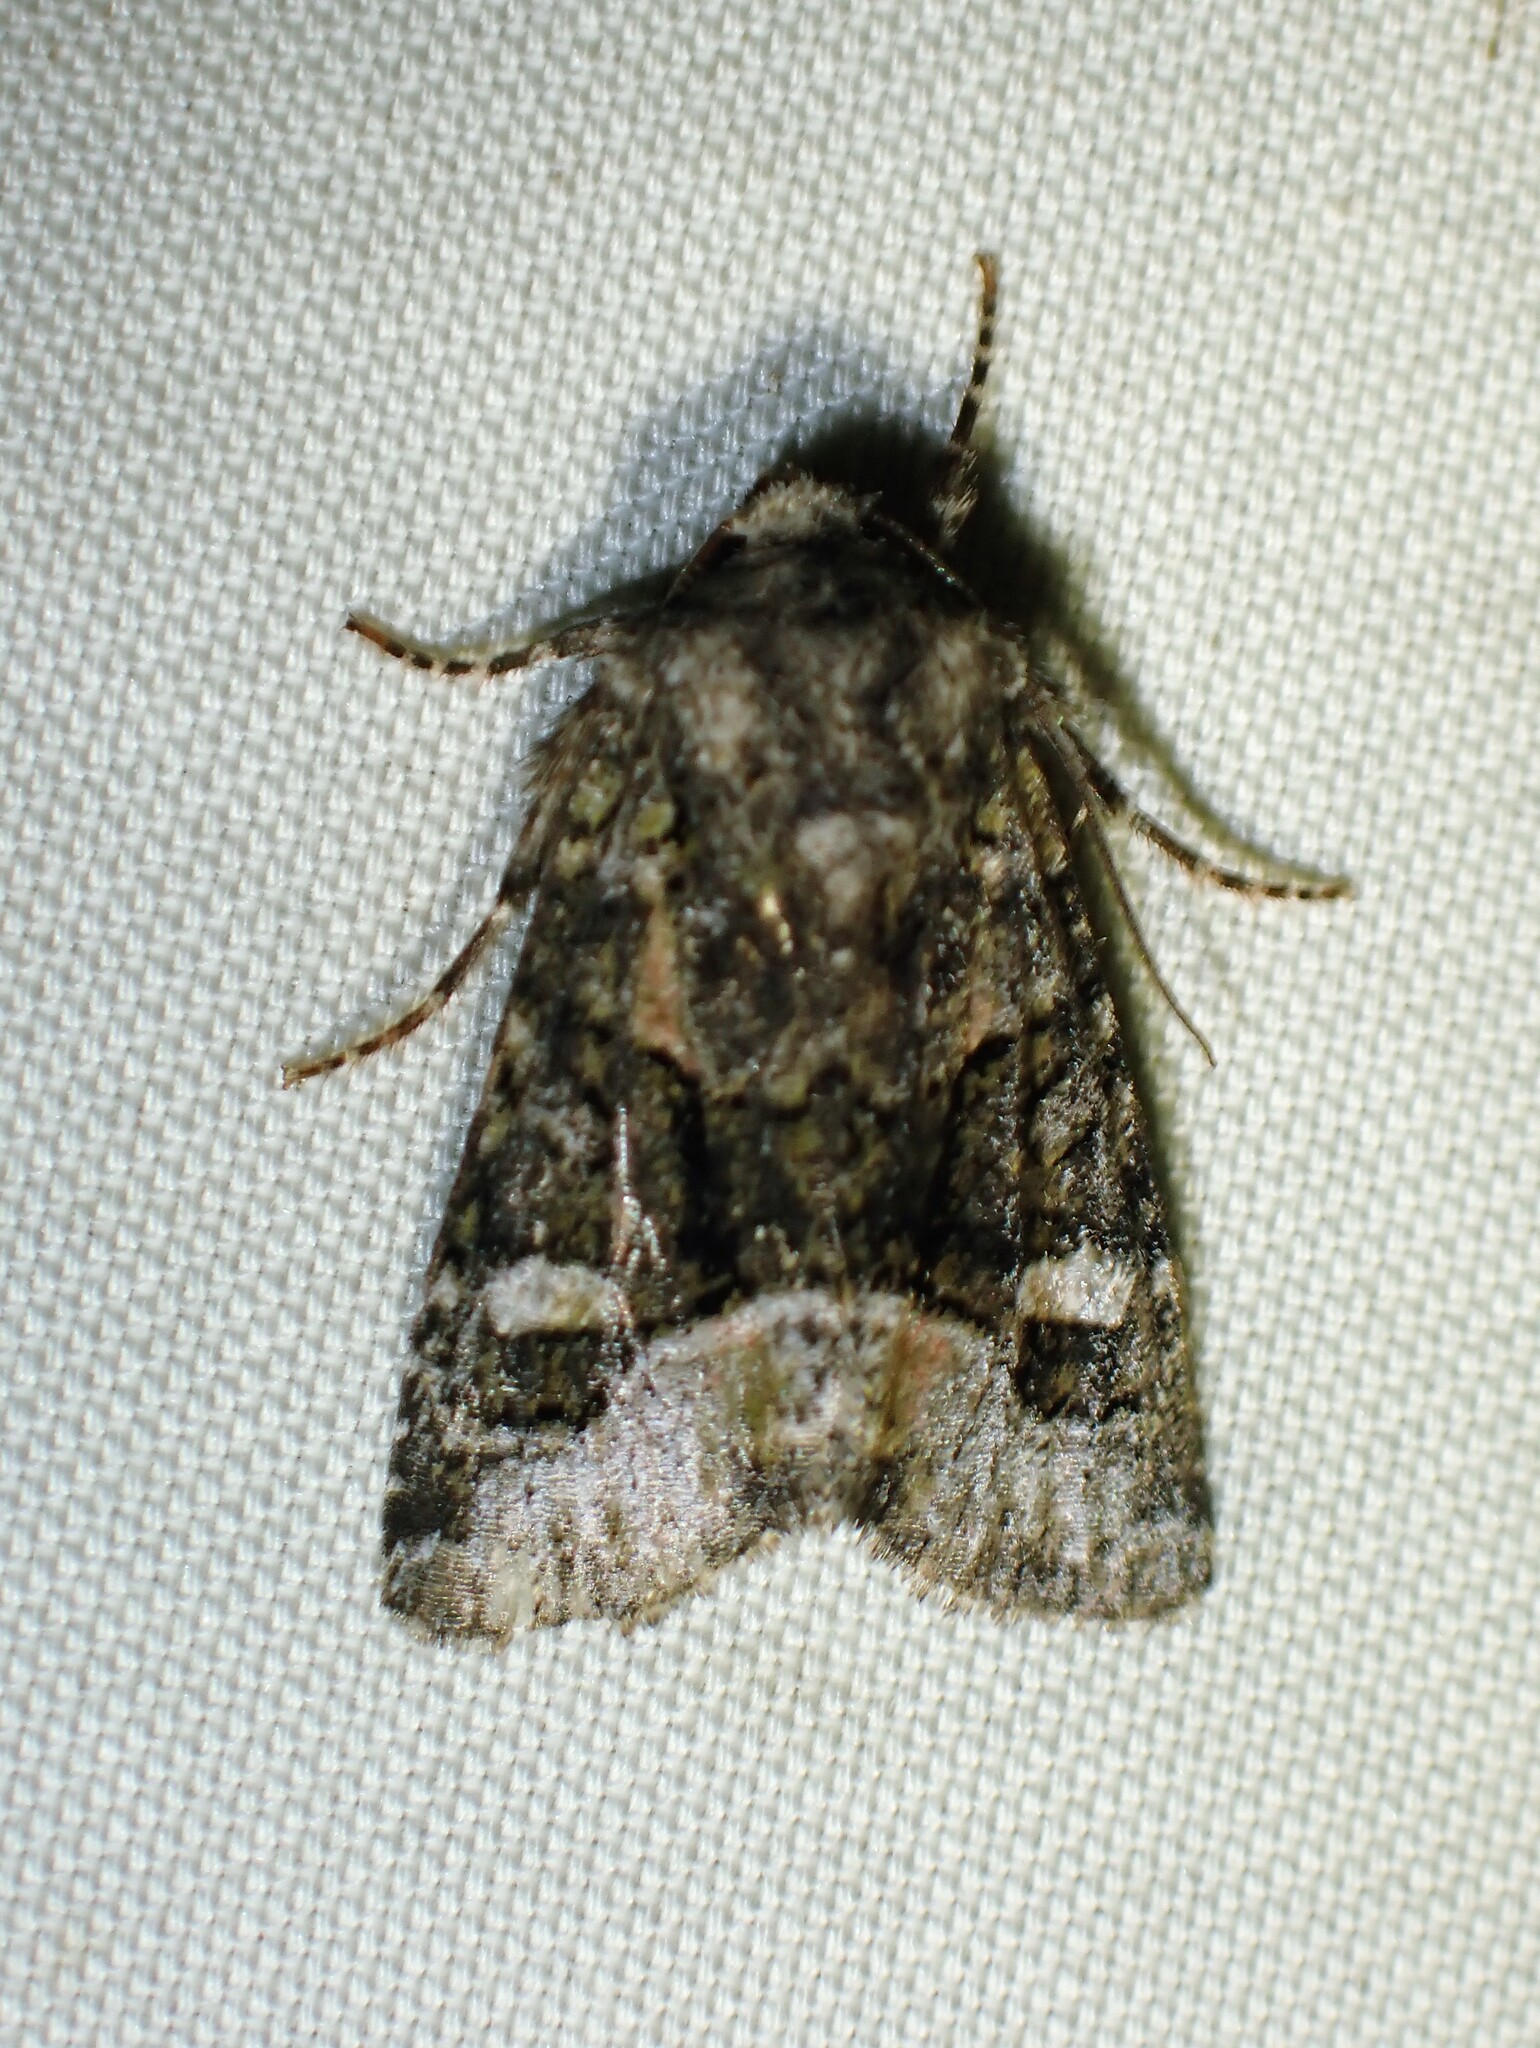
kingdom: Animalia
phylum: Arthropoda
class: Insecta
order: Lepidoptera
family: Noctuidae
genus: Lacinipolia
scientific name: Lacinipolia olivacea
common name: Olive arches moth
